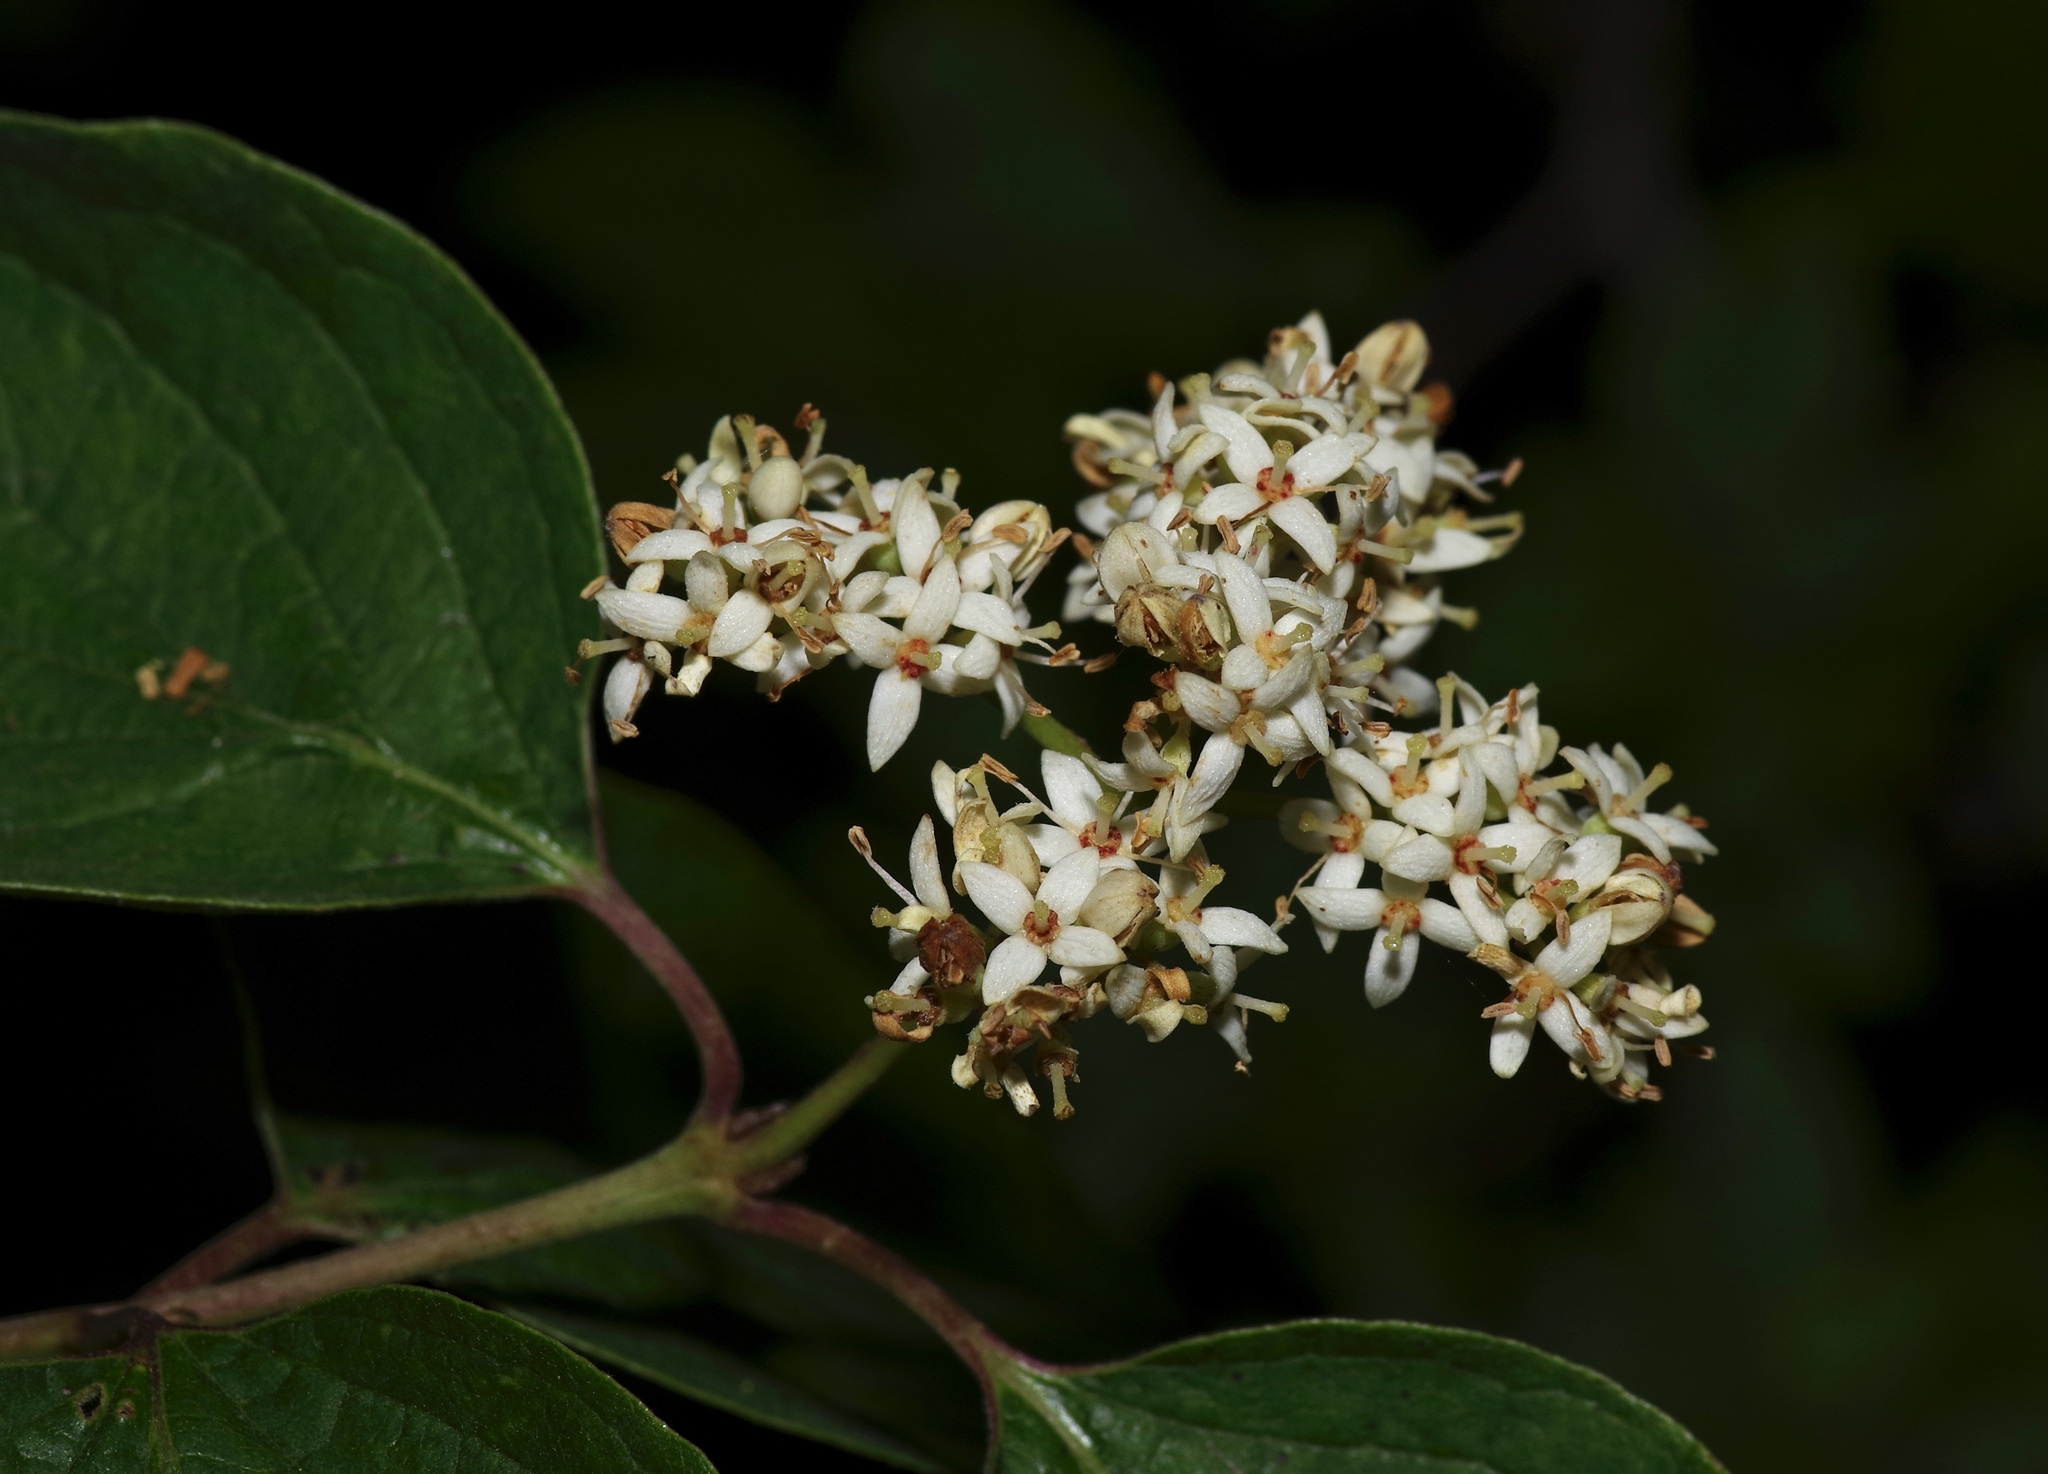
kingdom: Plantae
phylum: Tracheophyta
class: Magnoliopsida
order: Cornales
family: Cornaceae
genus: Cornus
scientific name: Cornus drummondii
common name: Rough-leaf dogwood
